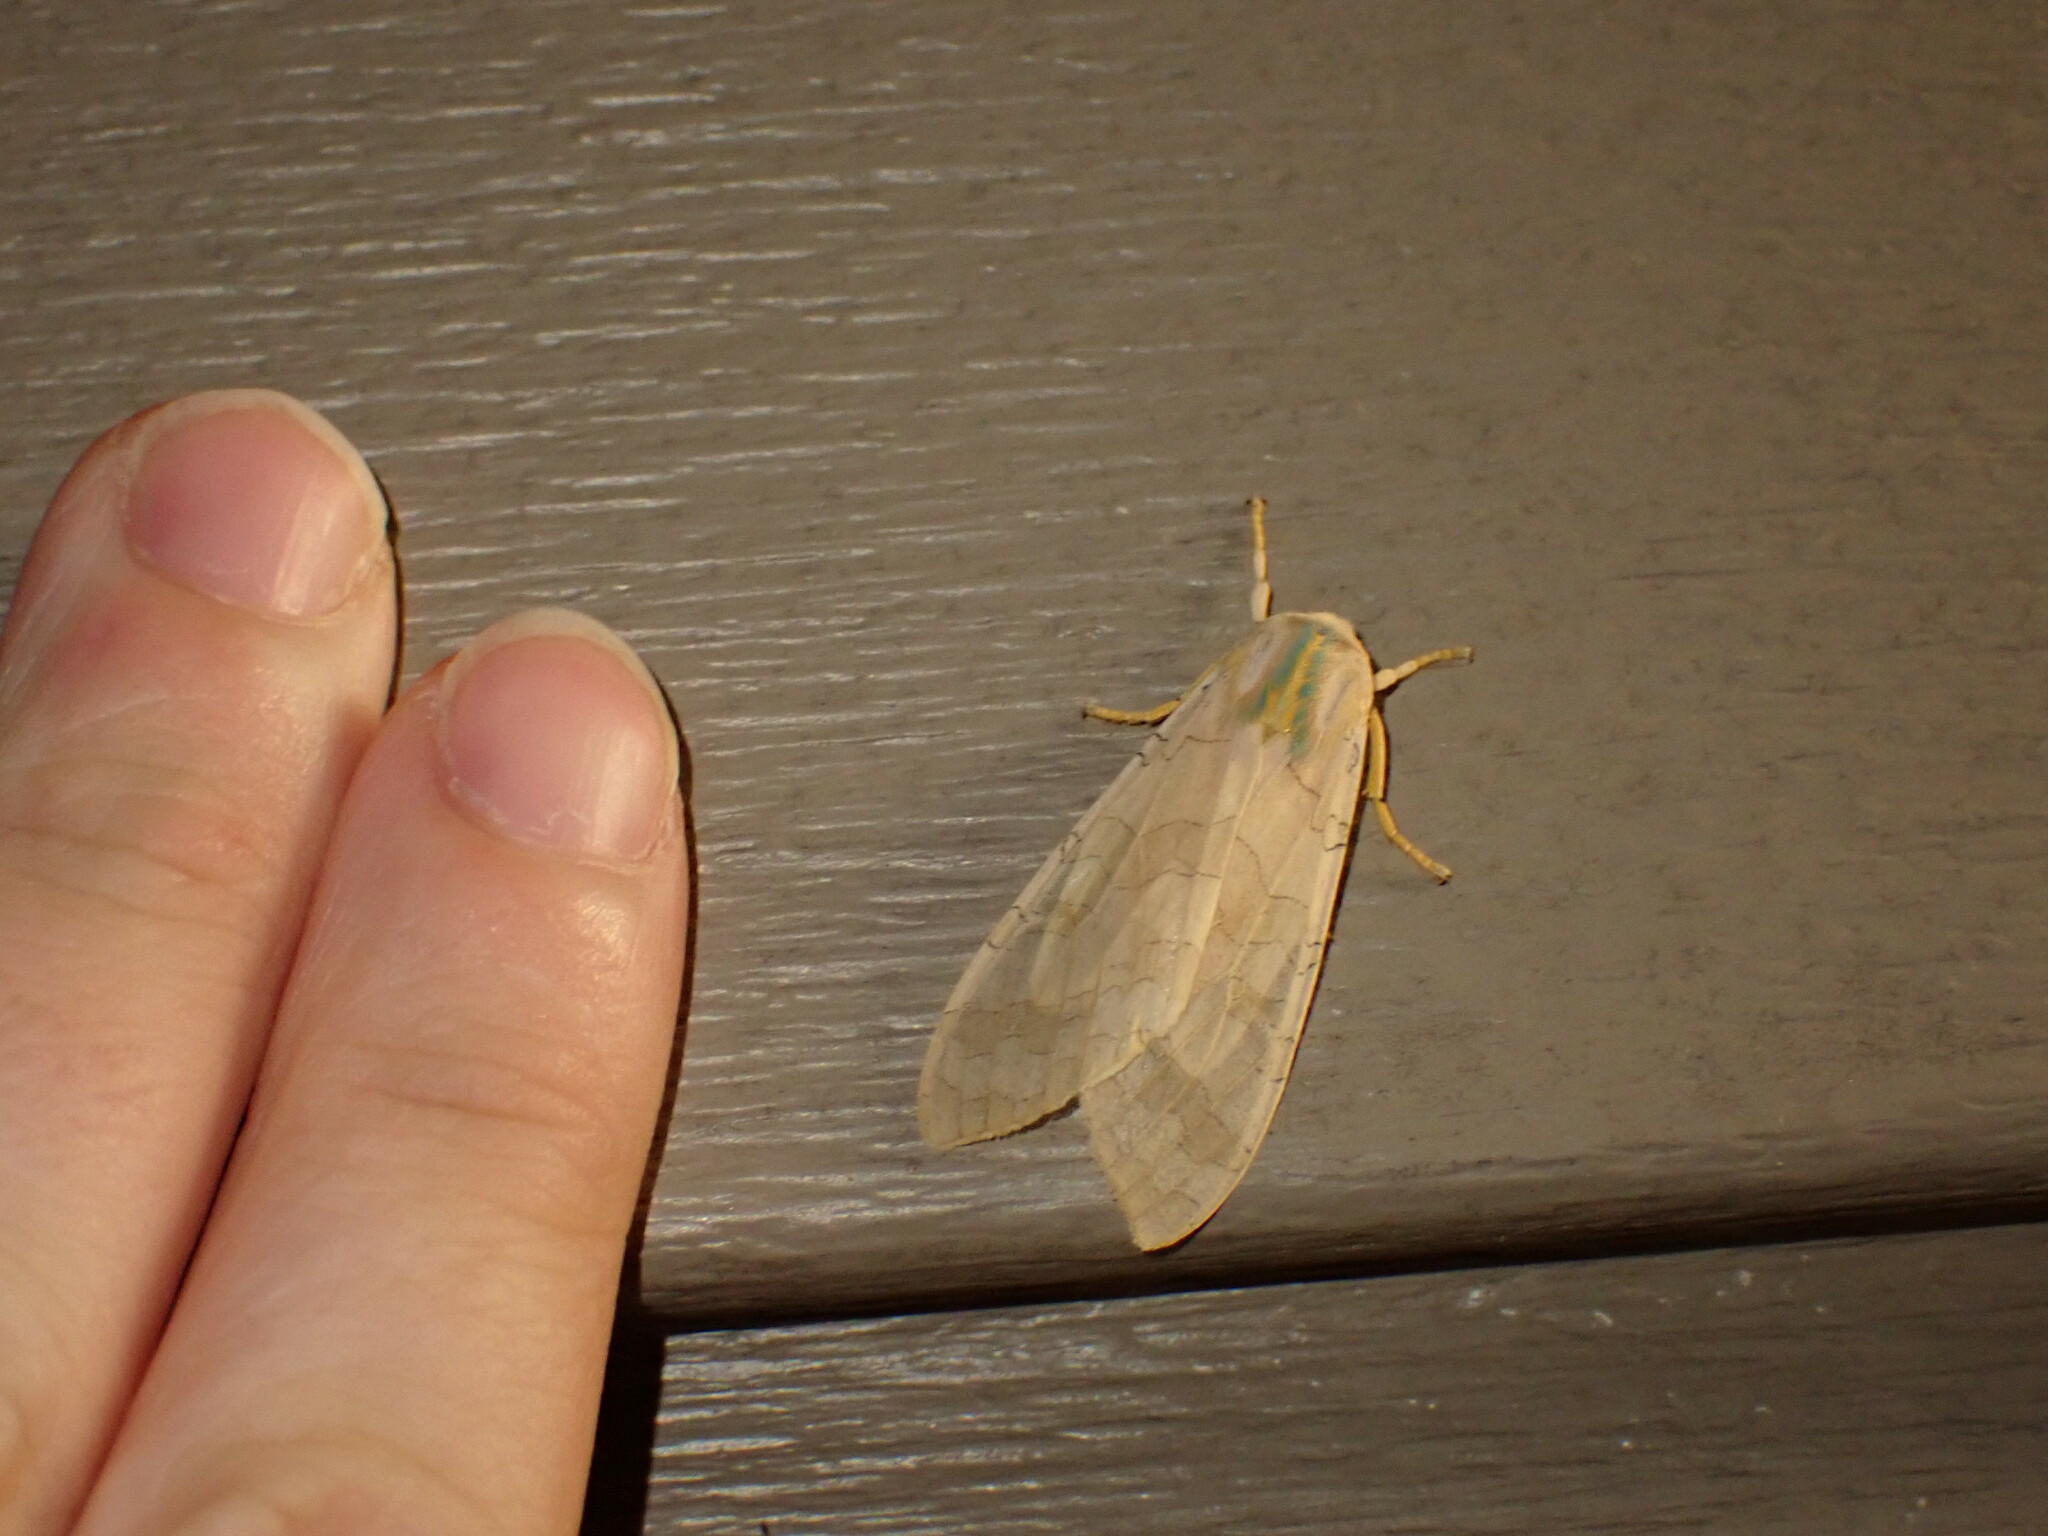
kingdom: Animalia
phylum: Arthropoda
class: Insecta
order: Lepidoptera
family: Erebidae
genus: Halysidota
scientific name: Halysidota
